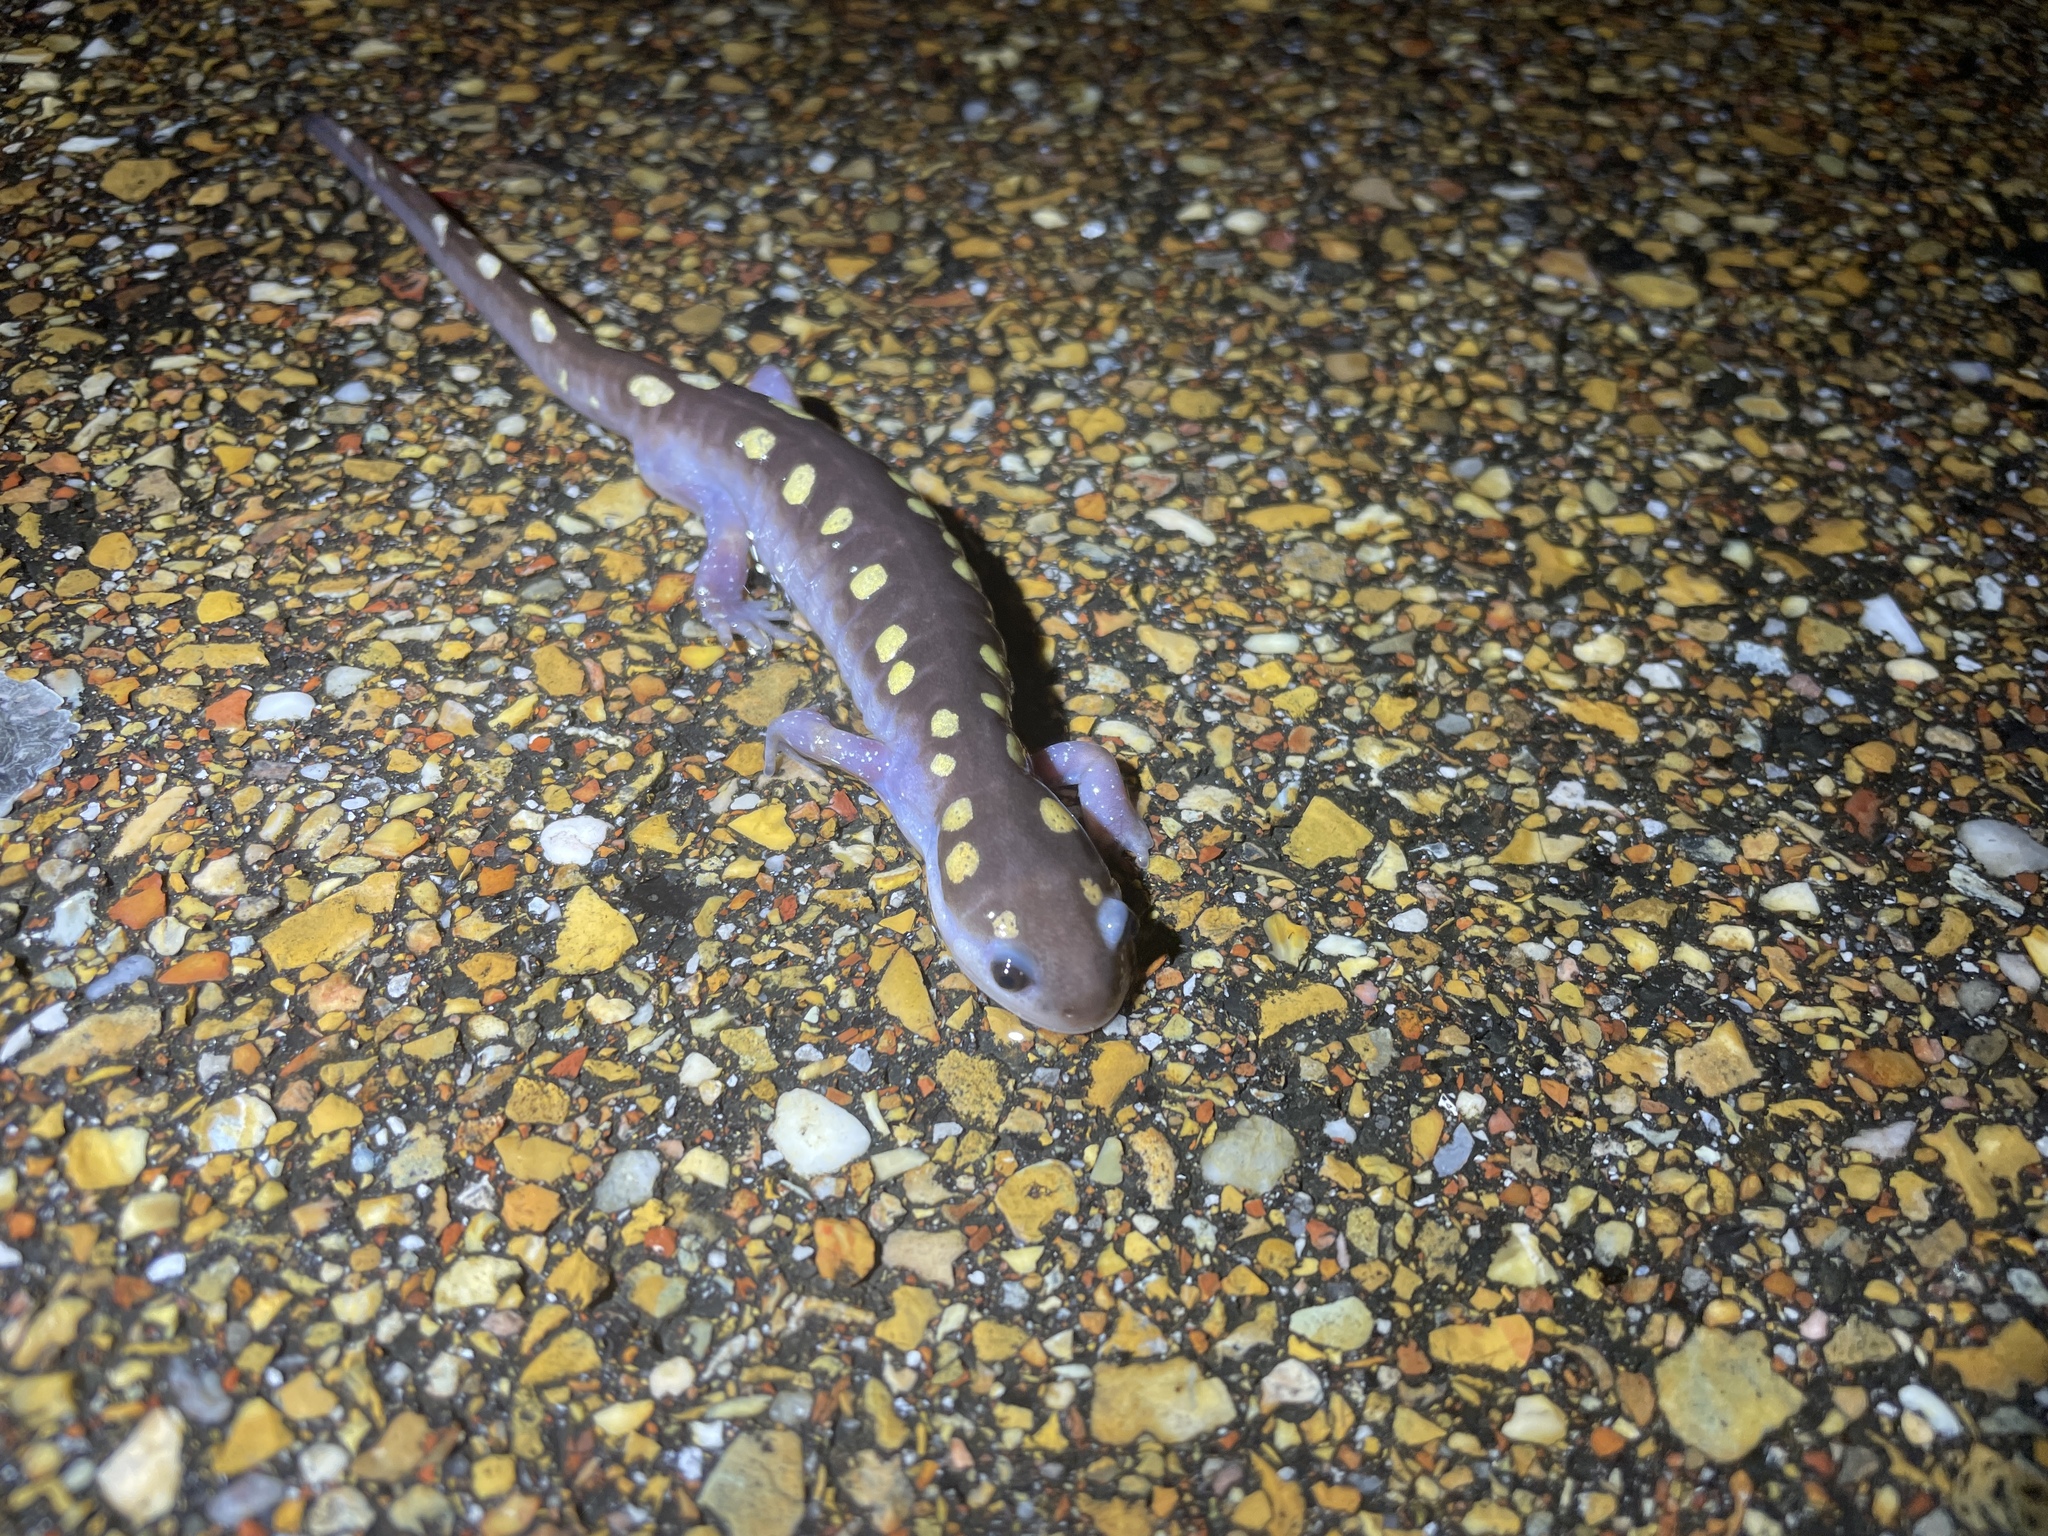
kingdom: Animalia
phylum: Chordata
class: Amphibia
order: Caudata
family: Ambystomatidae
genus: Ambystoma
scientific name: Ambystoma maculatum
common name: Spotted salamander
